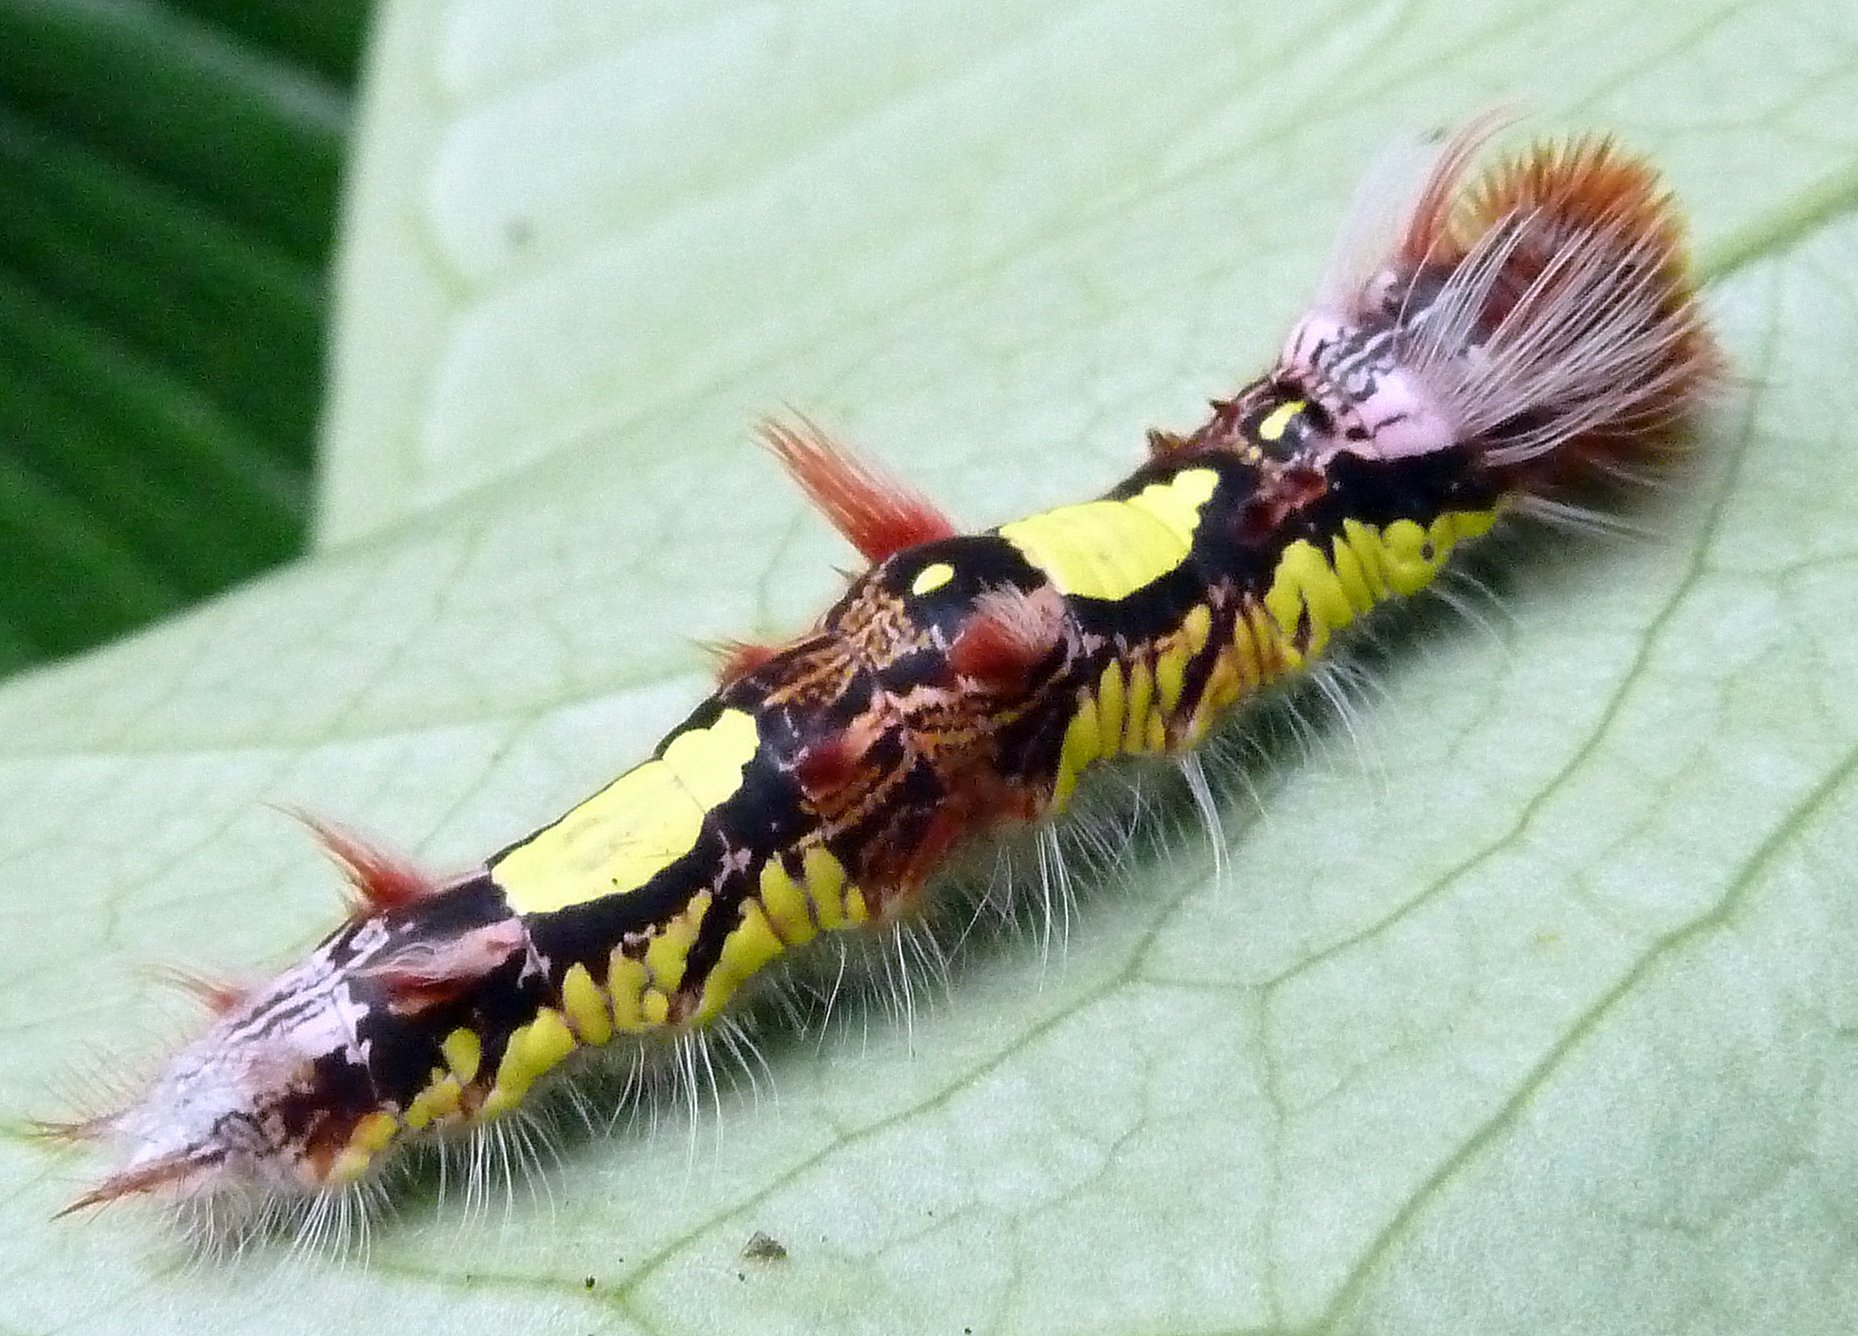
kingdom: Animalia
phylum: Arthropoda
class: Insecta
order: Lepidoptera
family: Nymphalidae
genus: Morpho
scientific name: Morpho helenor
